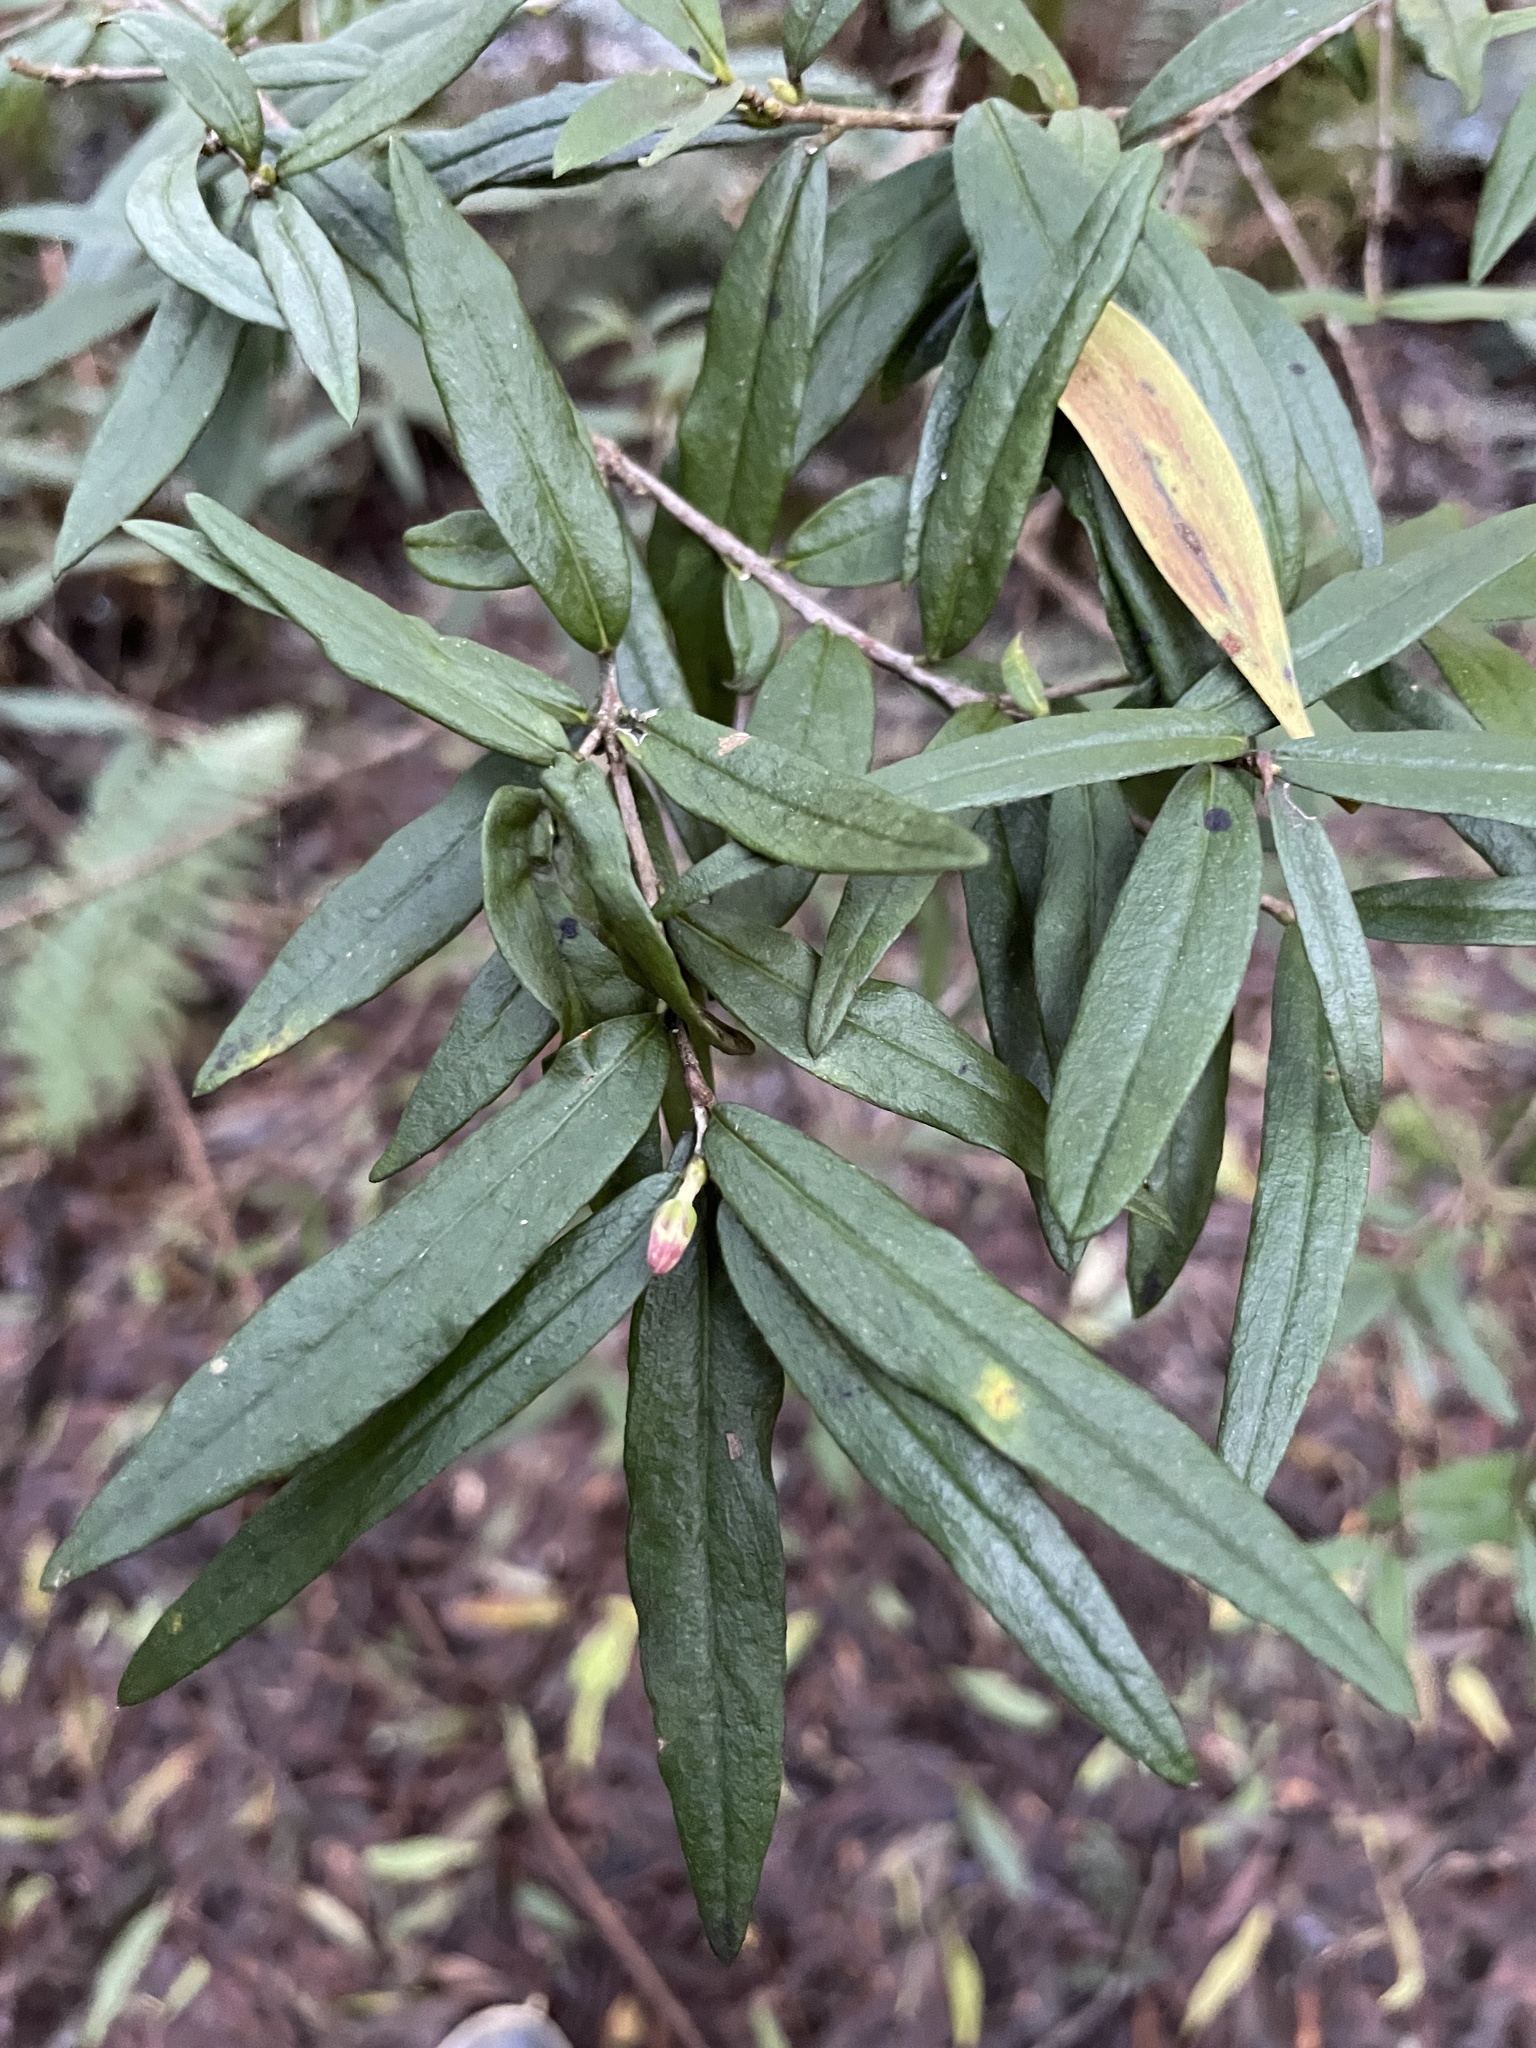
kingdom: Plantae
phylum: Tracheophyta
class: Magnoliopsida
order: Apiales
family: Pittosporaceae
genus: Pittosporum
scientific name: Pittosporum bicolor
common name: Tallowwood
